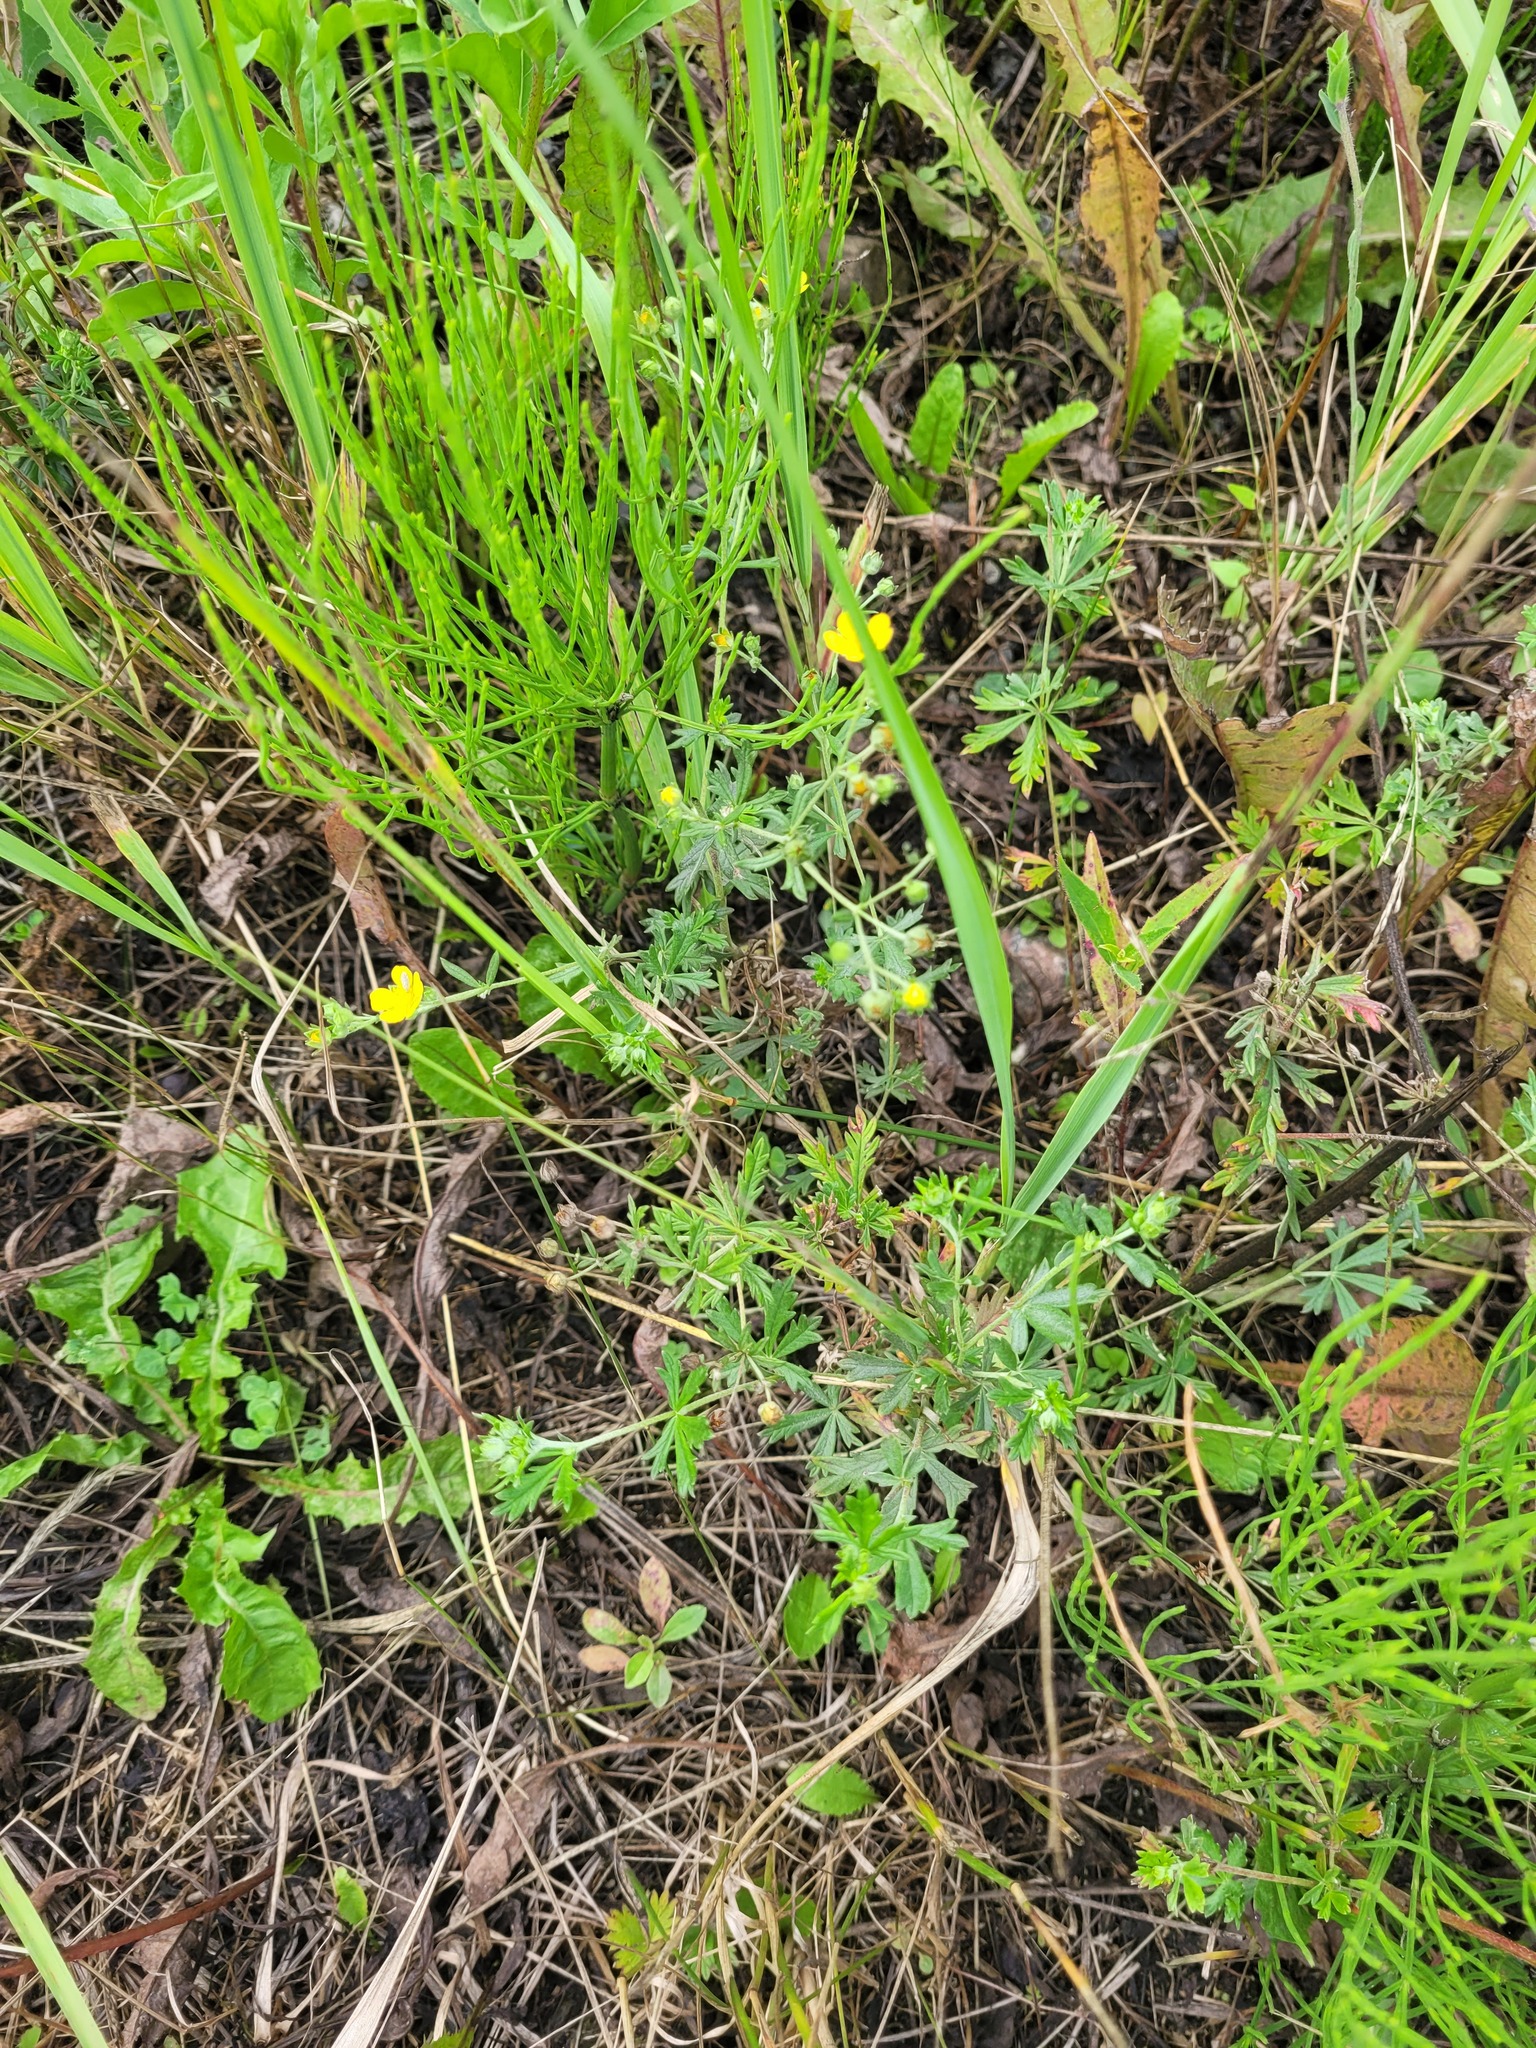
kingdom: Plantae
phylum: Tracheophyta
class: Magnoliopsida
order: Rosales
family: Rosaceae
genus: Potentilla
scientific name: Potentilla argentea
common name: Hoary cinquefoil
